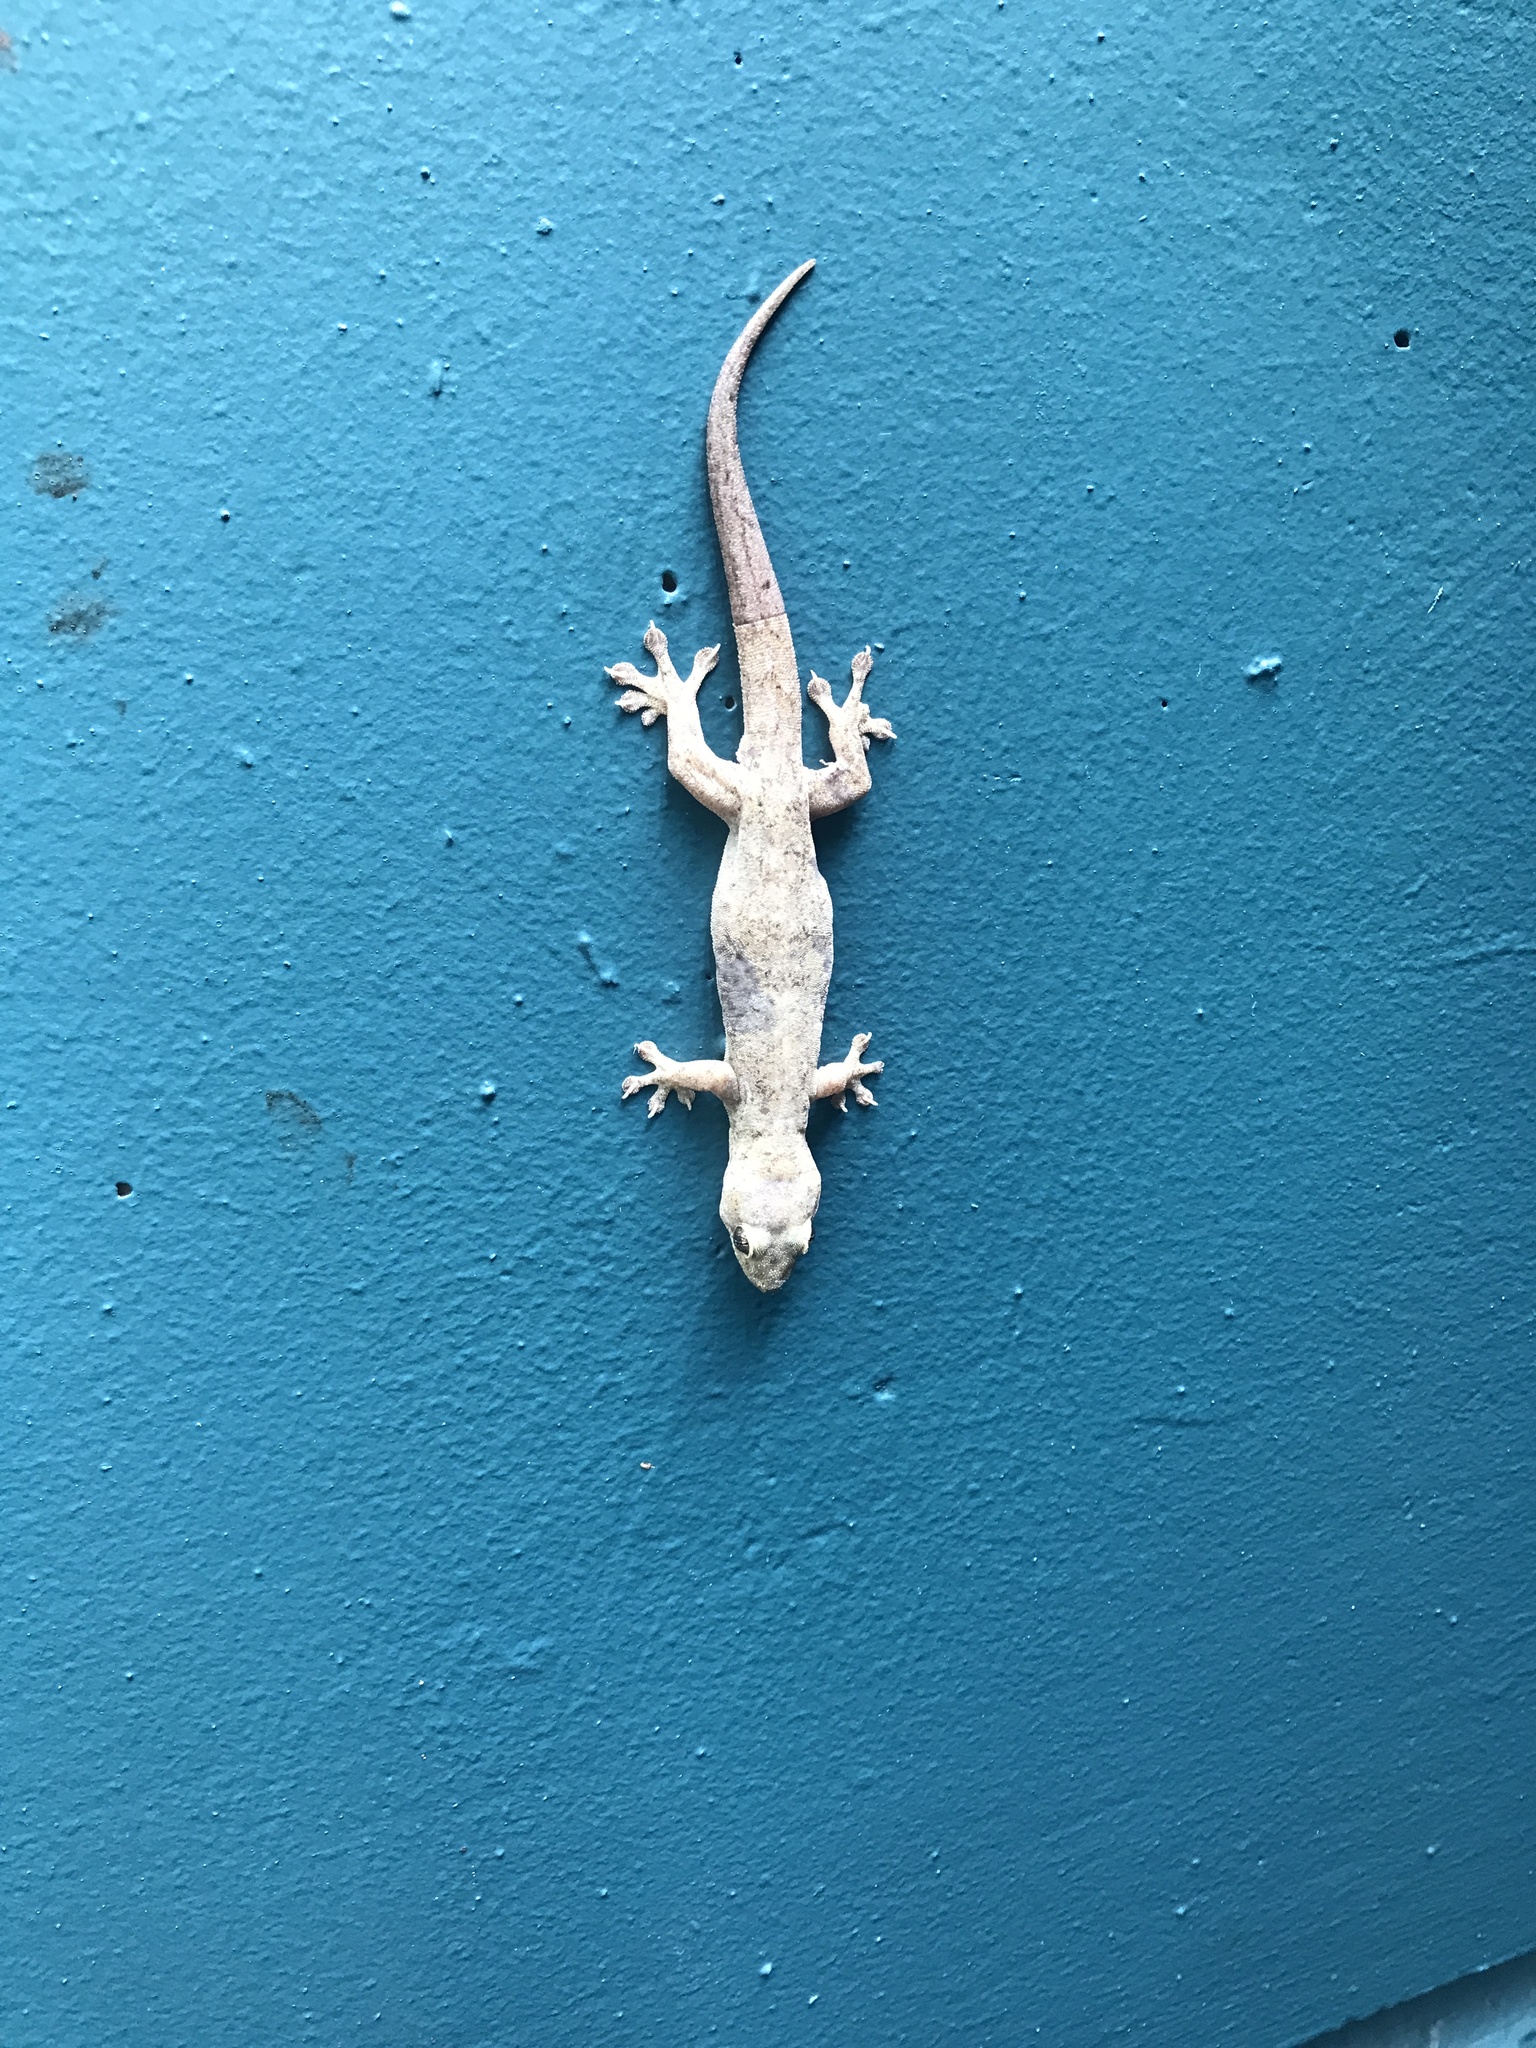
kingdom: Animalia
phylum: Chordata
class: Squamata
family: Gekkonidae
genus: Hemidactylus
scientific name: Hemidactylus frenatus
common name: Common house gecko
